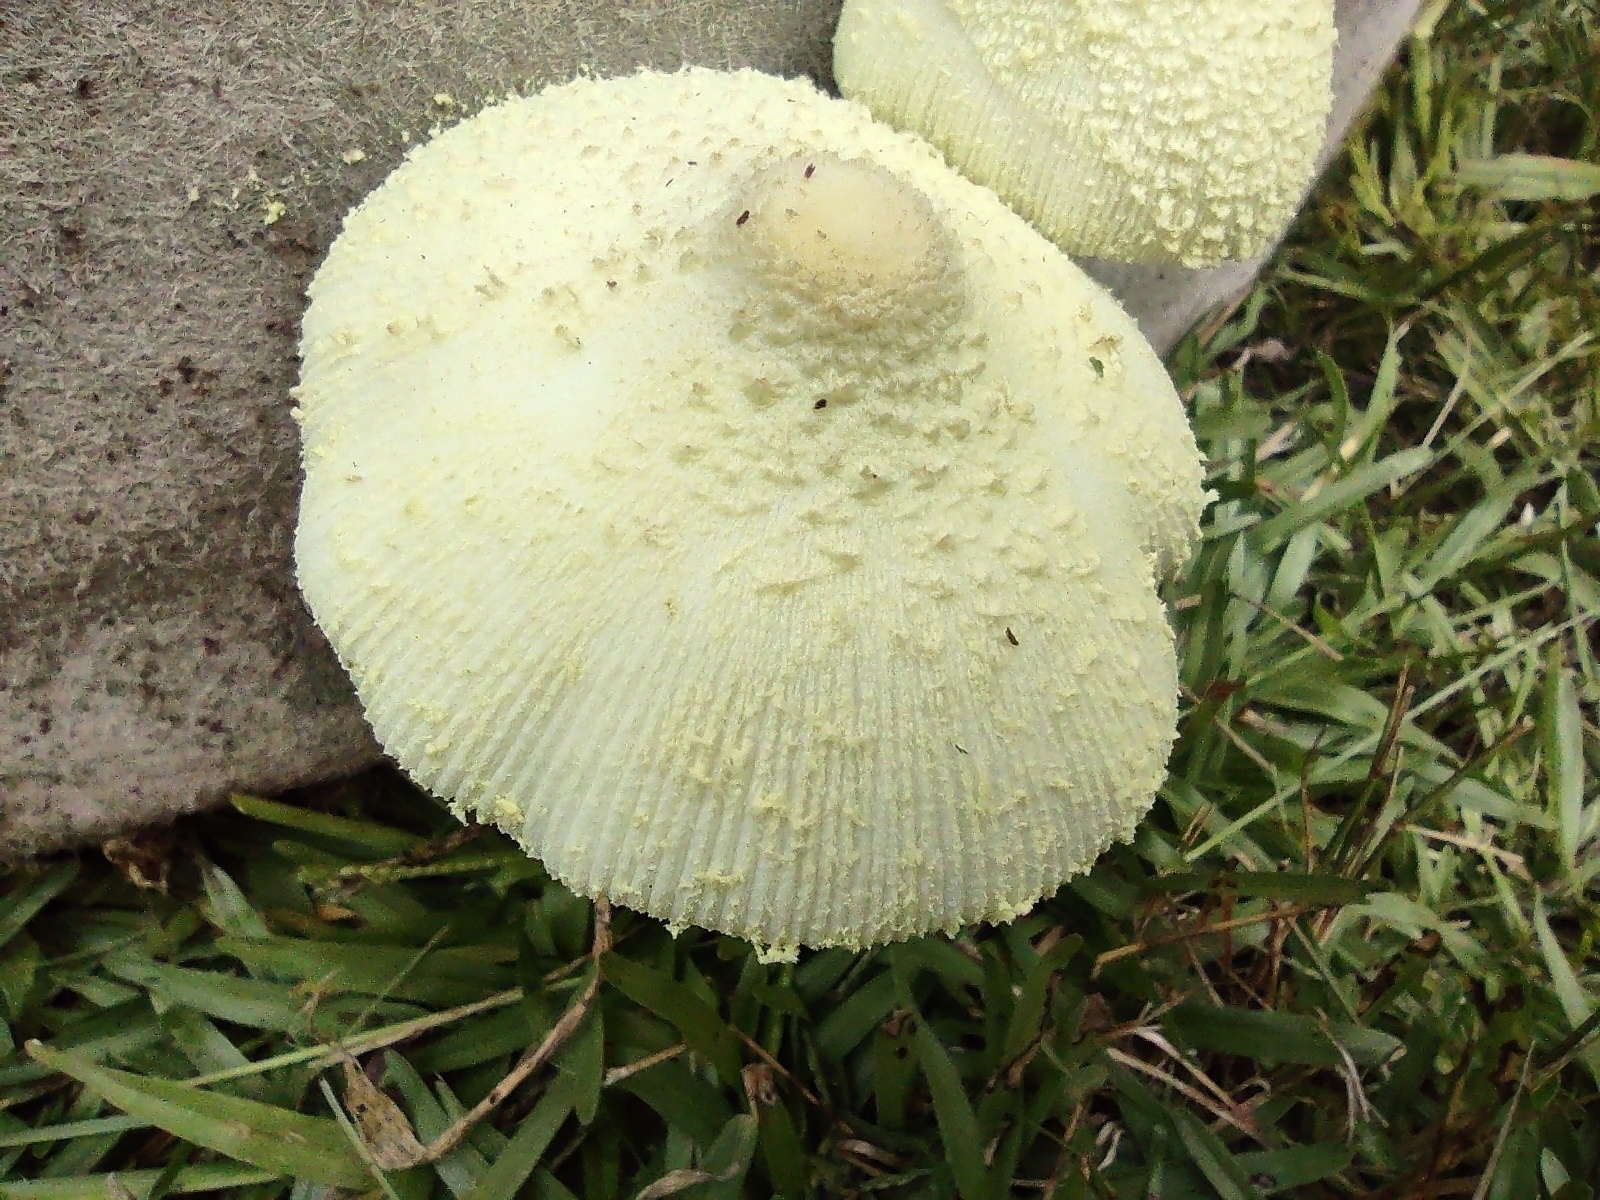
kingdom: Fungi
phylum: Basidiomycota
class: Agaricomycetes
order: Agaricales
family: Agaricaceae
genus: Leucocoprinus
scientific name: Leucocoprinus birnbaumii
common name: Plantpot dapperling
